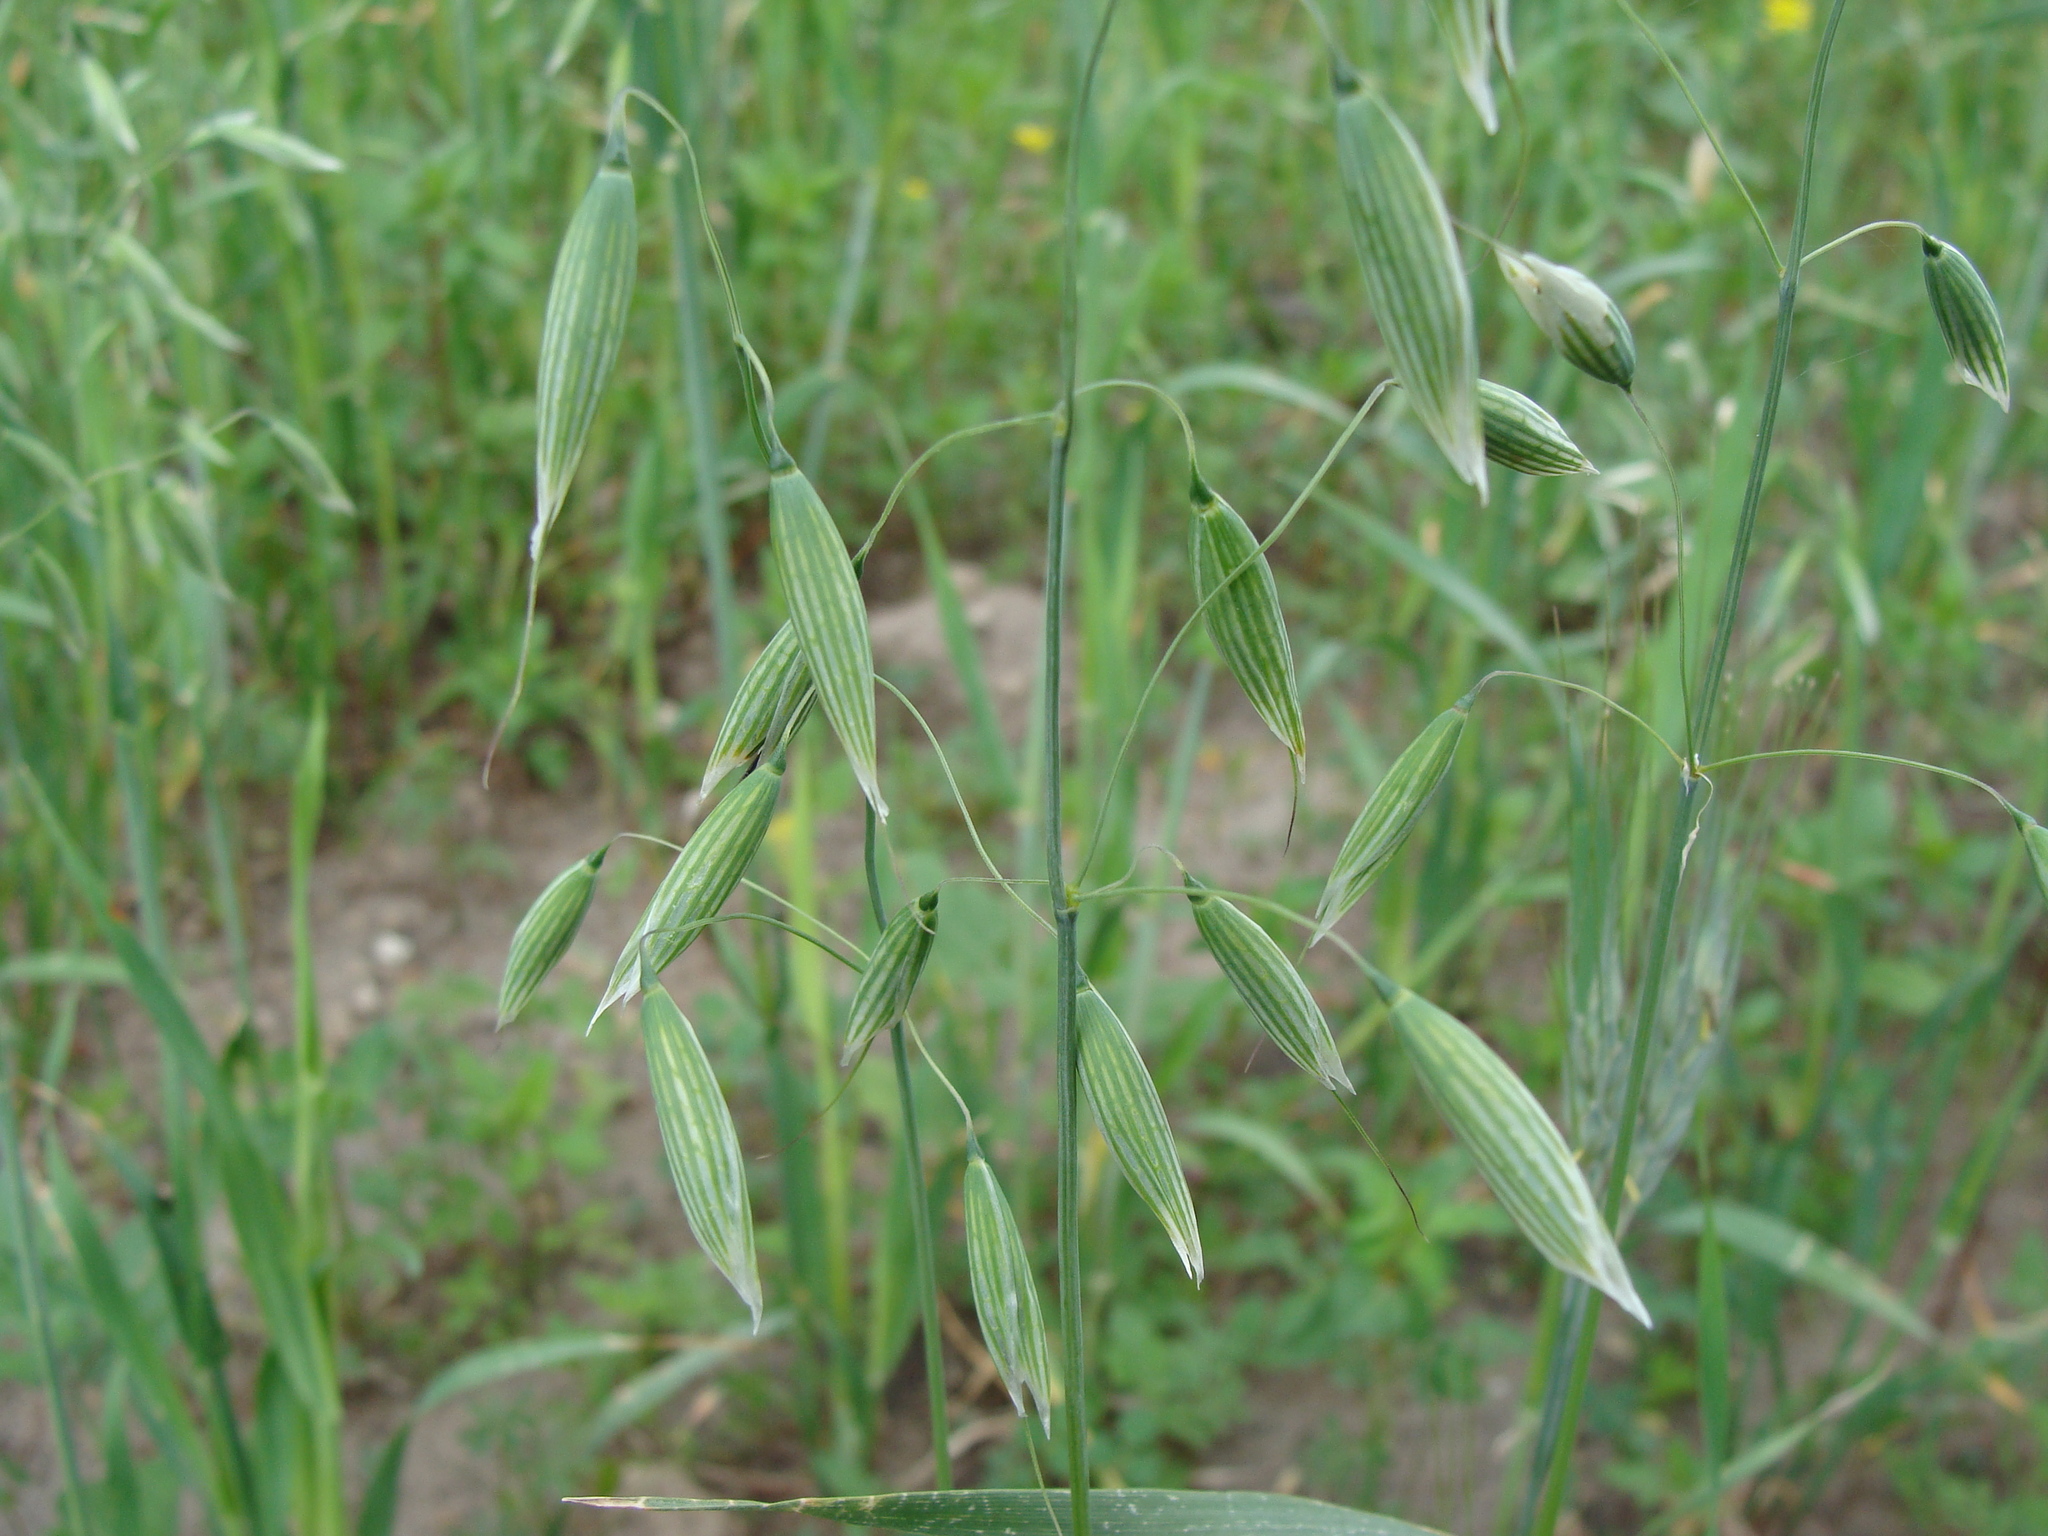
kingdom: Plantae
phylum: Tracheophyta
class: Liliopsida
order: Poales
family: Poaceae
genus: Avena
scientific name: Avena sativa
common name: Oat
